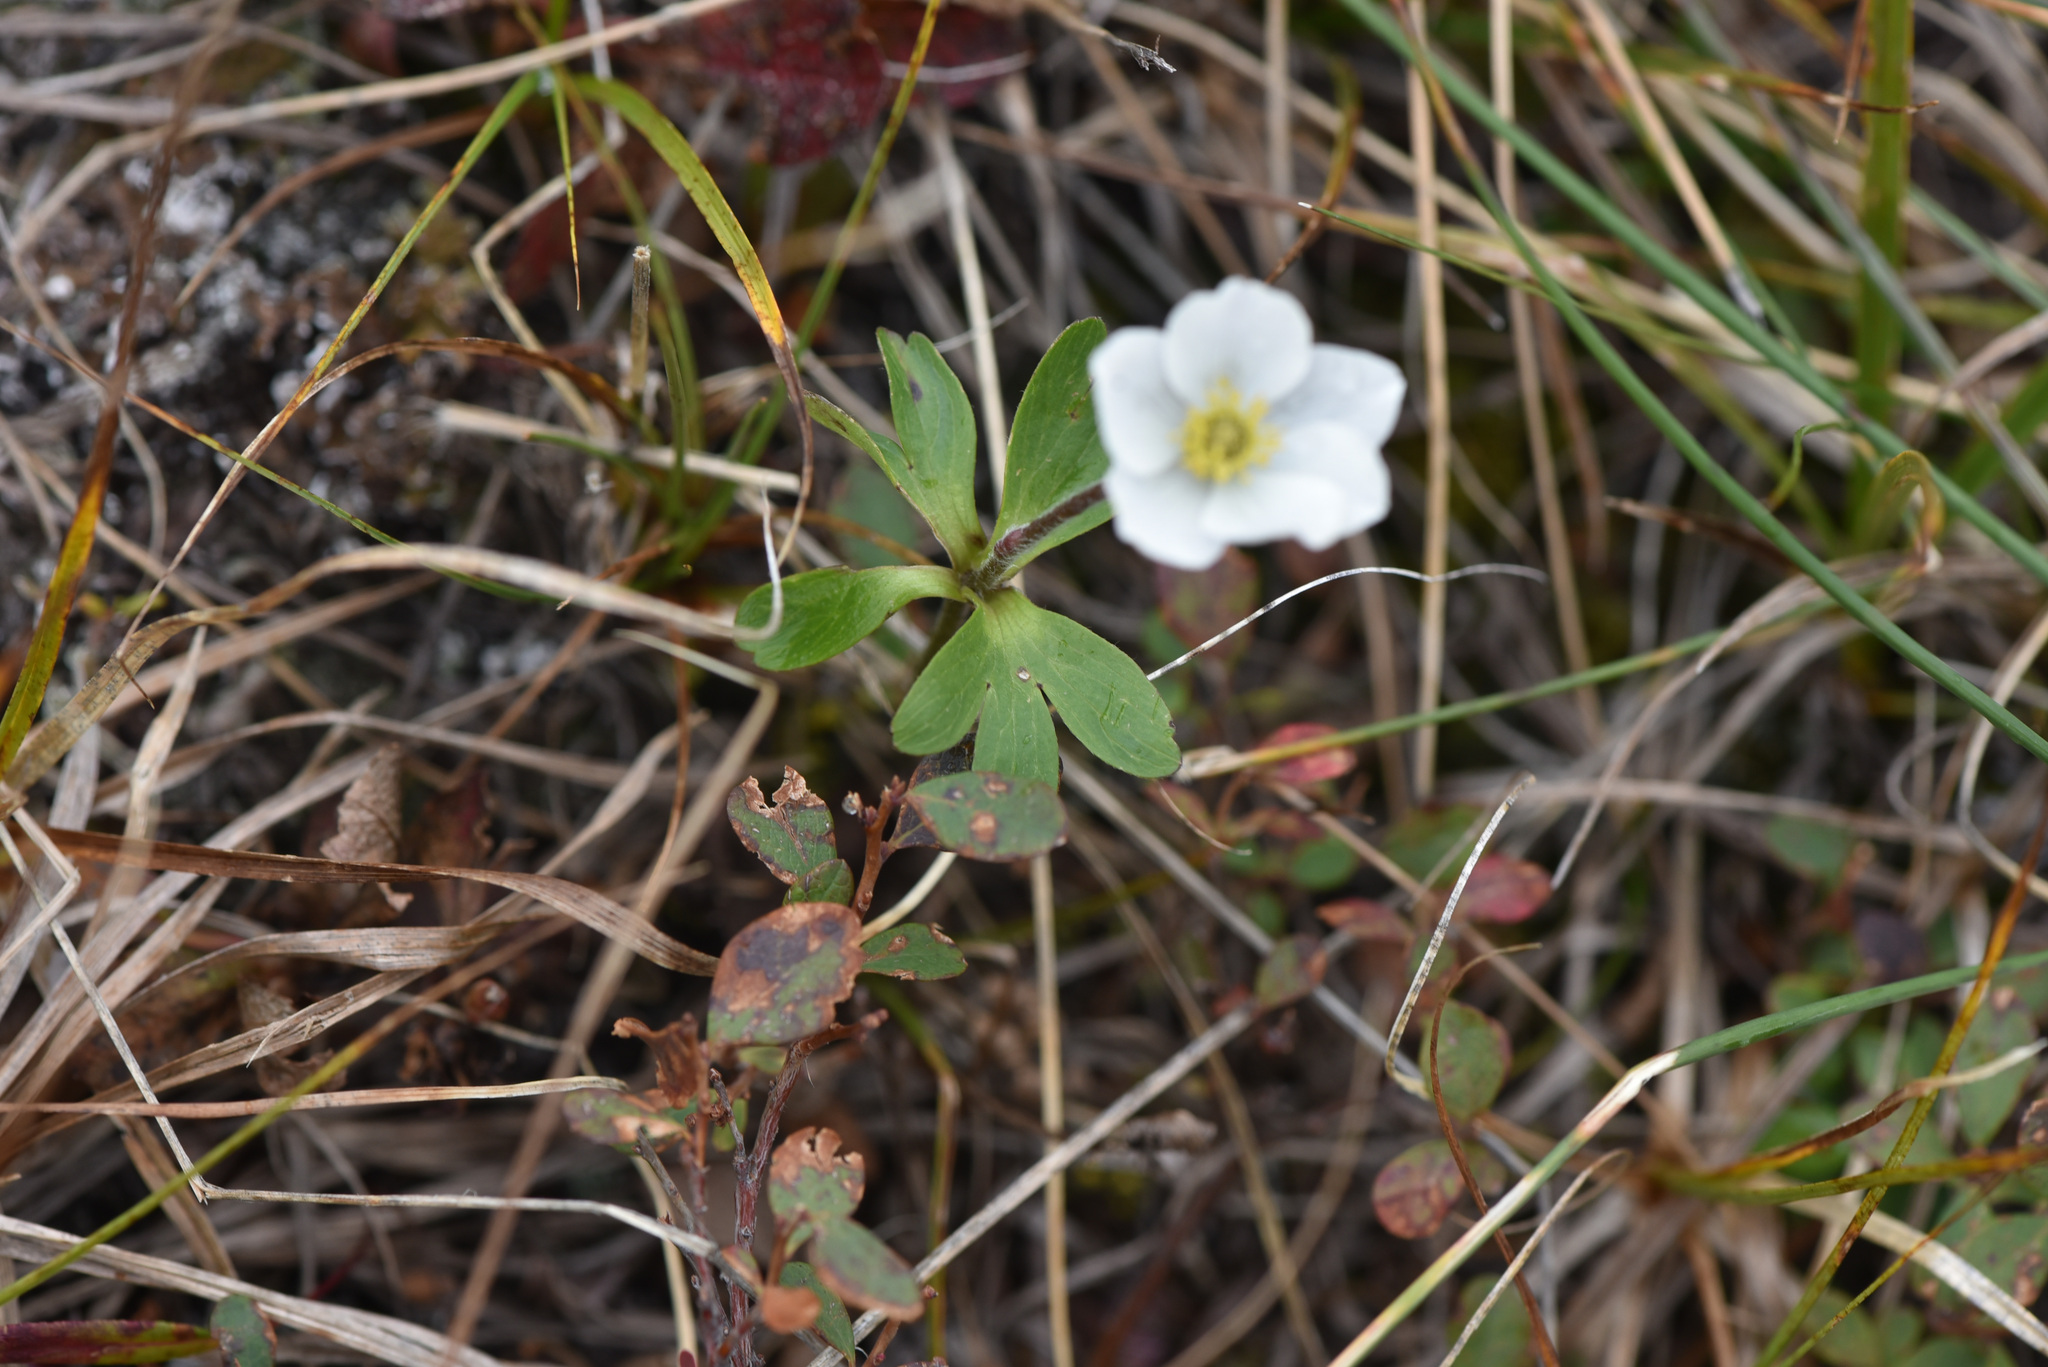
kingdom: Plantae
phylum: Tracheophyta
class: Magnoliopsida
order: Ranunculales
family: Ranunculaceae
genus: Anemone
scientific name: Anemone parviflora
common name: Northern anemone
